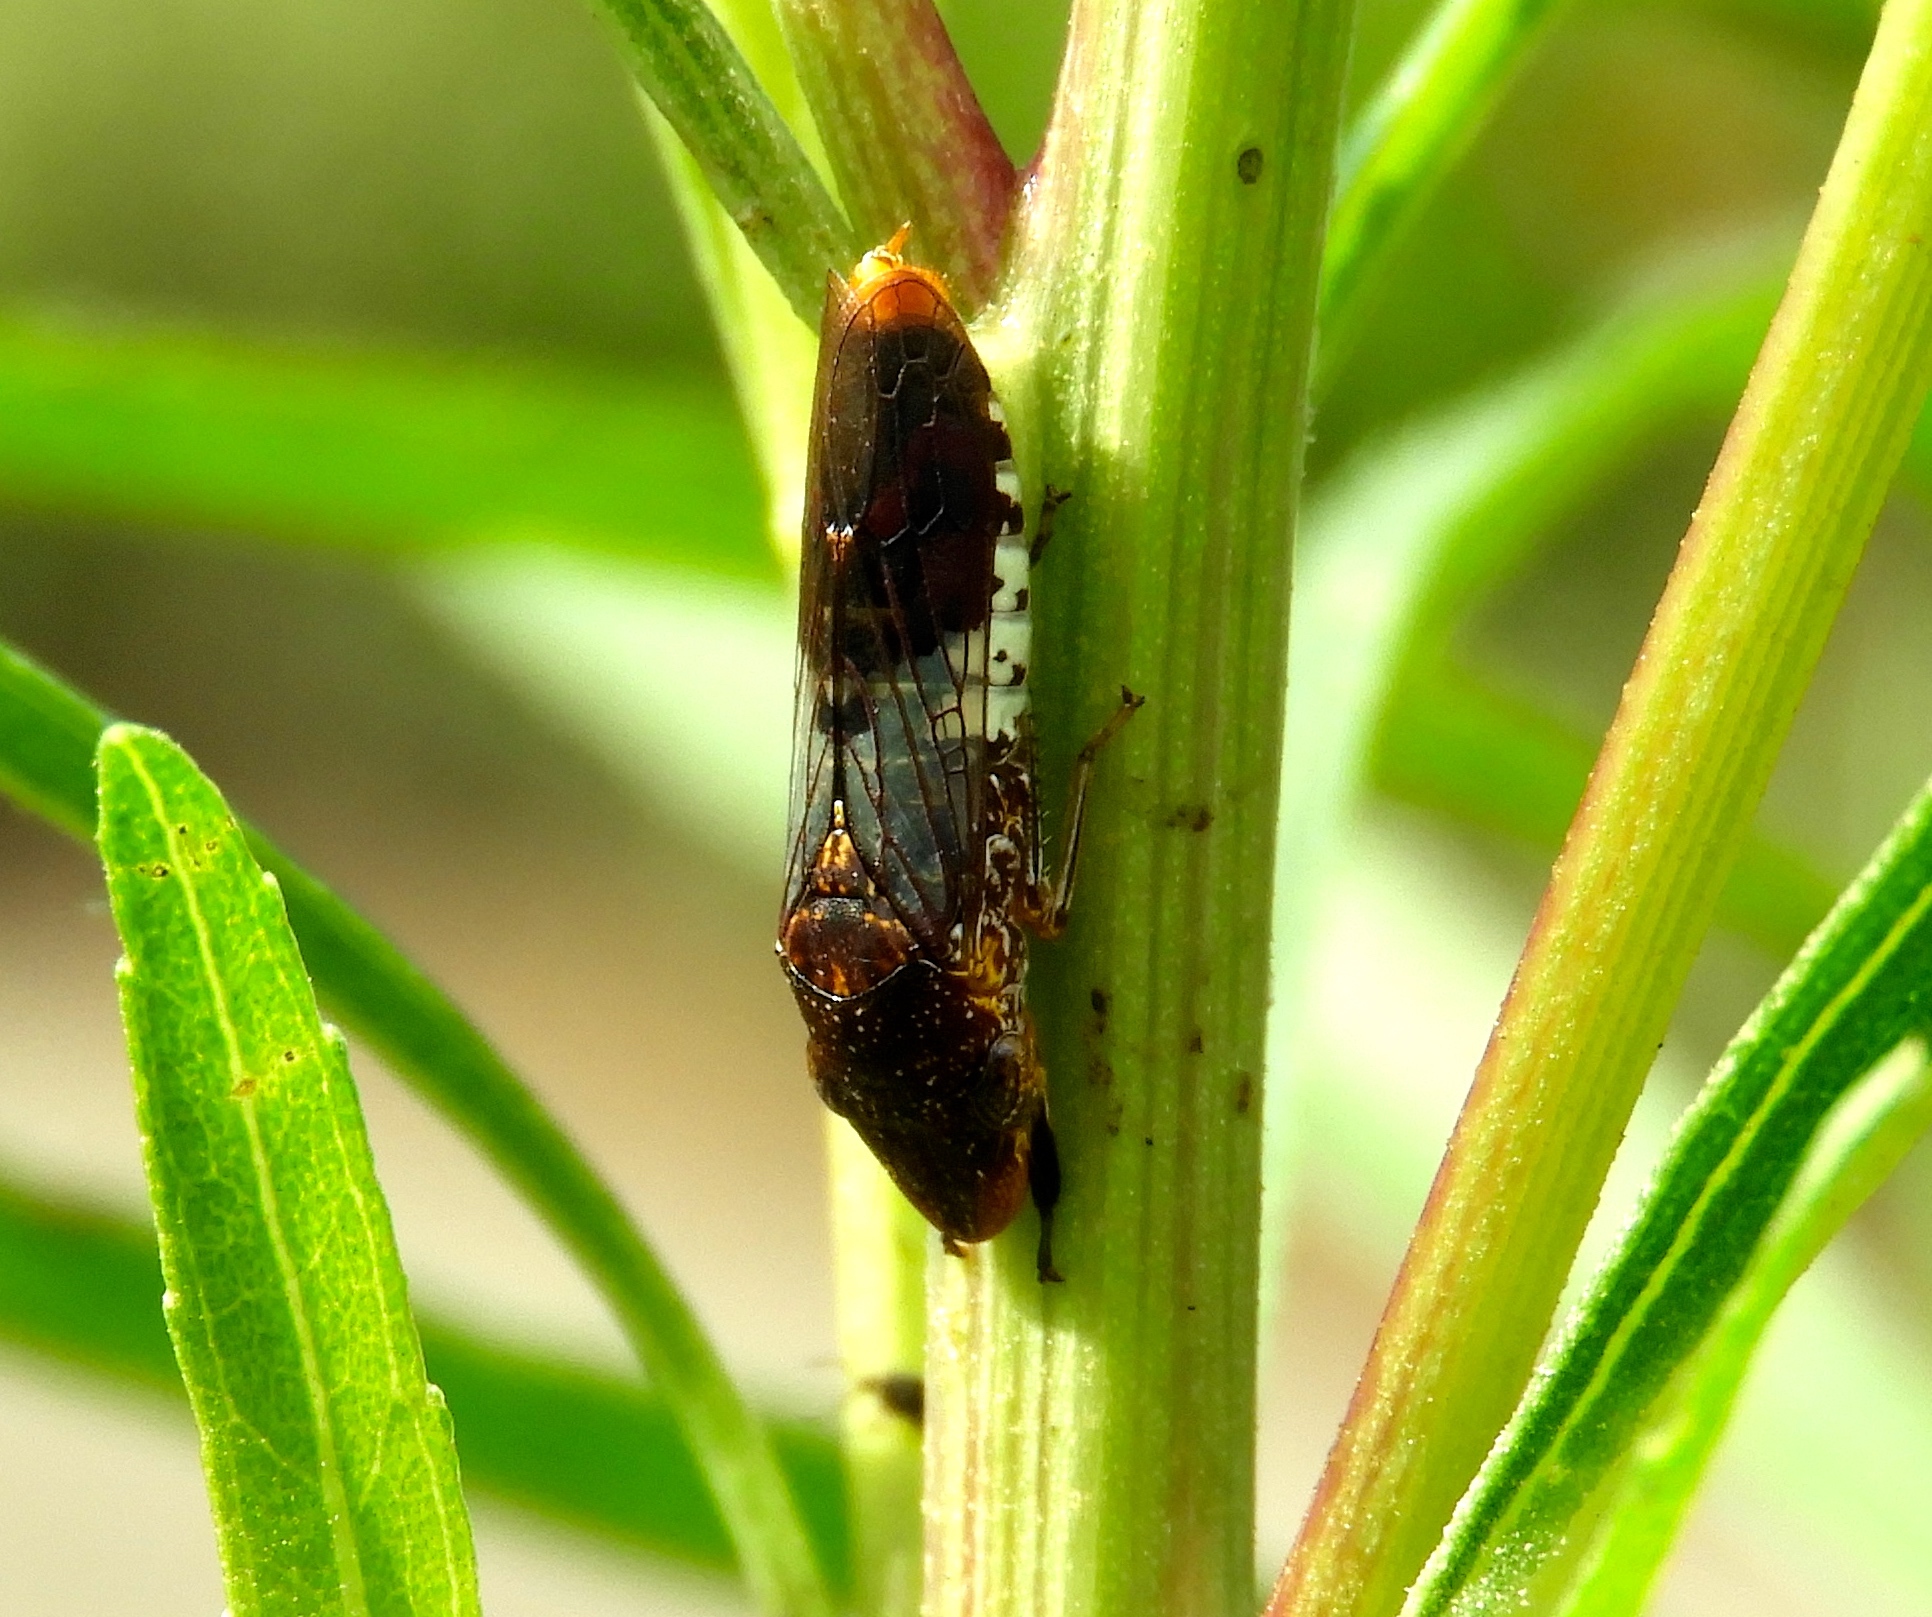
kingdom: Animalia
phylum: Arthropoda
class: Insecta
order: Hemiptera
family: Cicadellidae
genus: Homalodisca
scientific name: Homalodisca ichthyocephala
